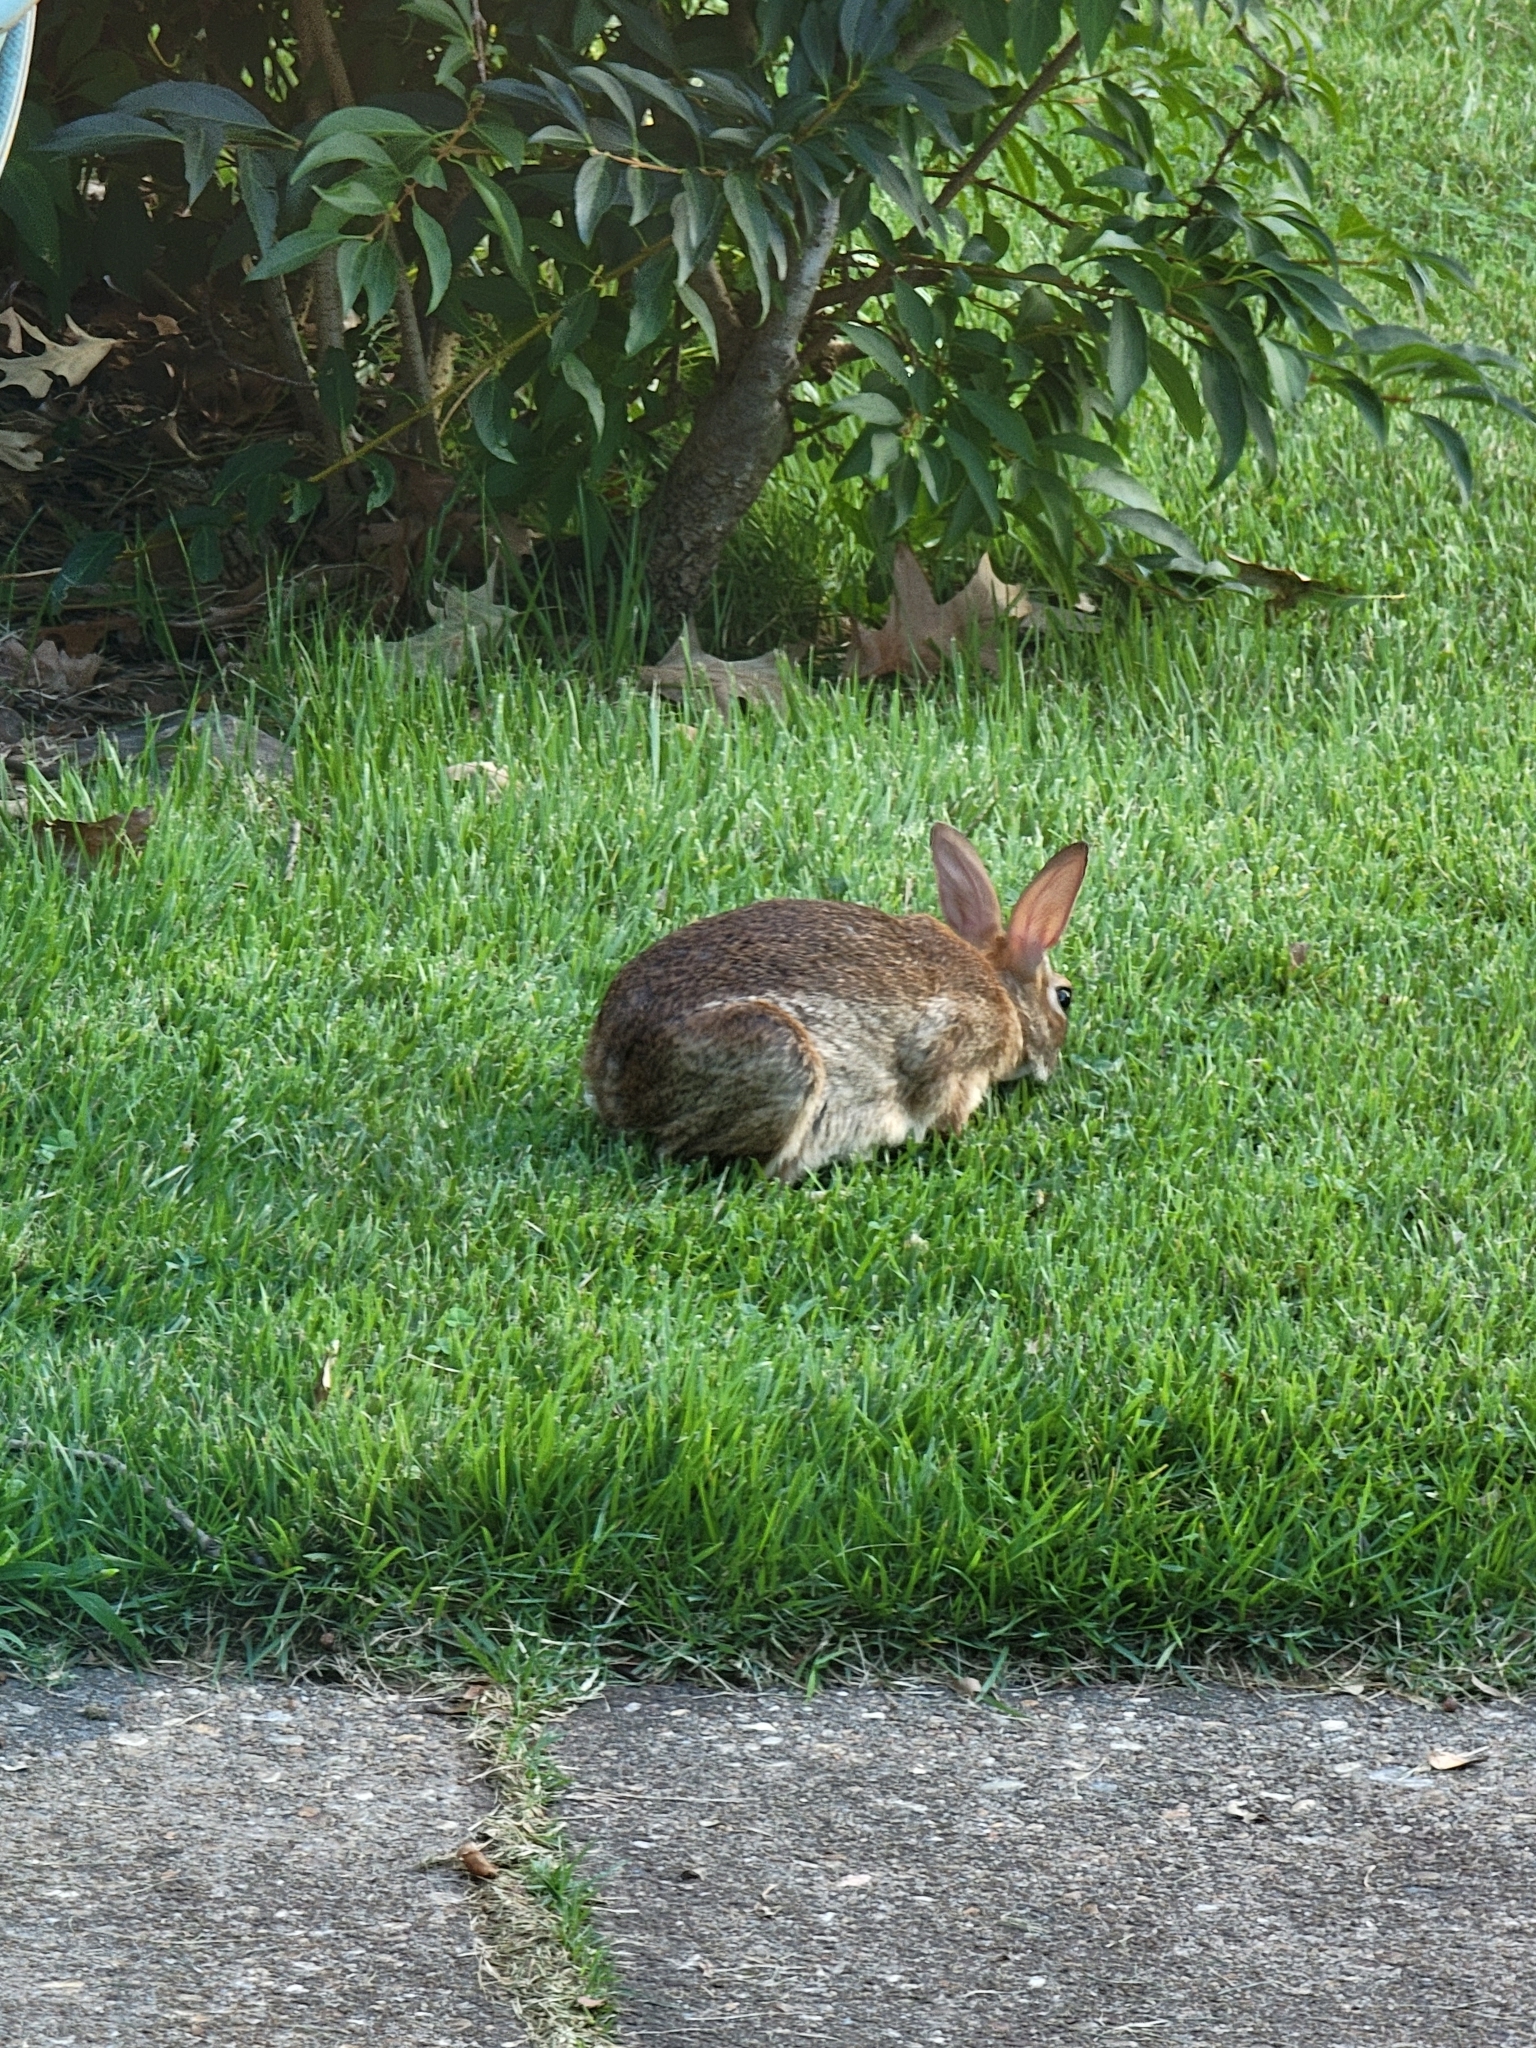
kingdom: Animalia
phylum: Chordata
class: Mammalia
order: Lagomorpha
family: Leporidae
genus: Sylvilagus
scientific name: Sylvilagus floridanus
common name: Eastern cottontail
